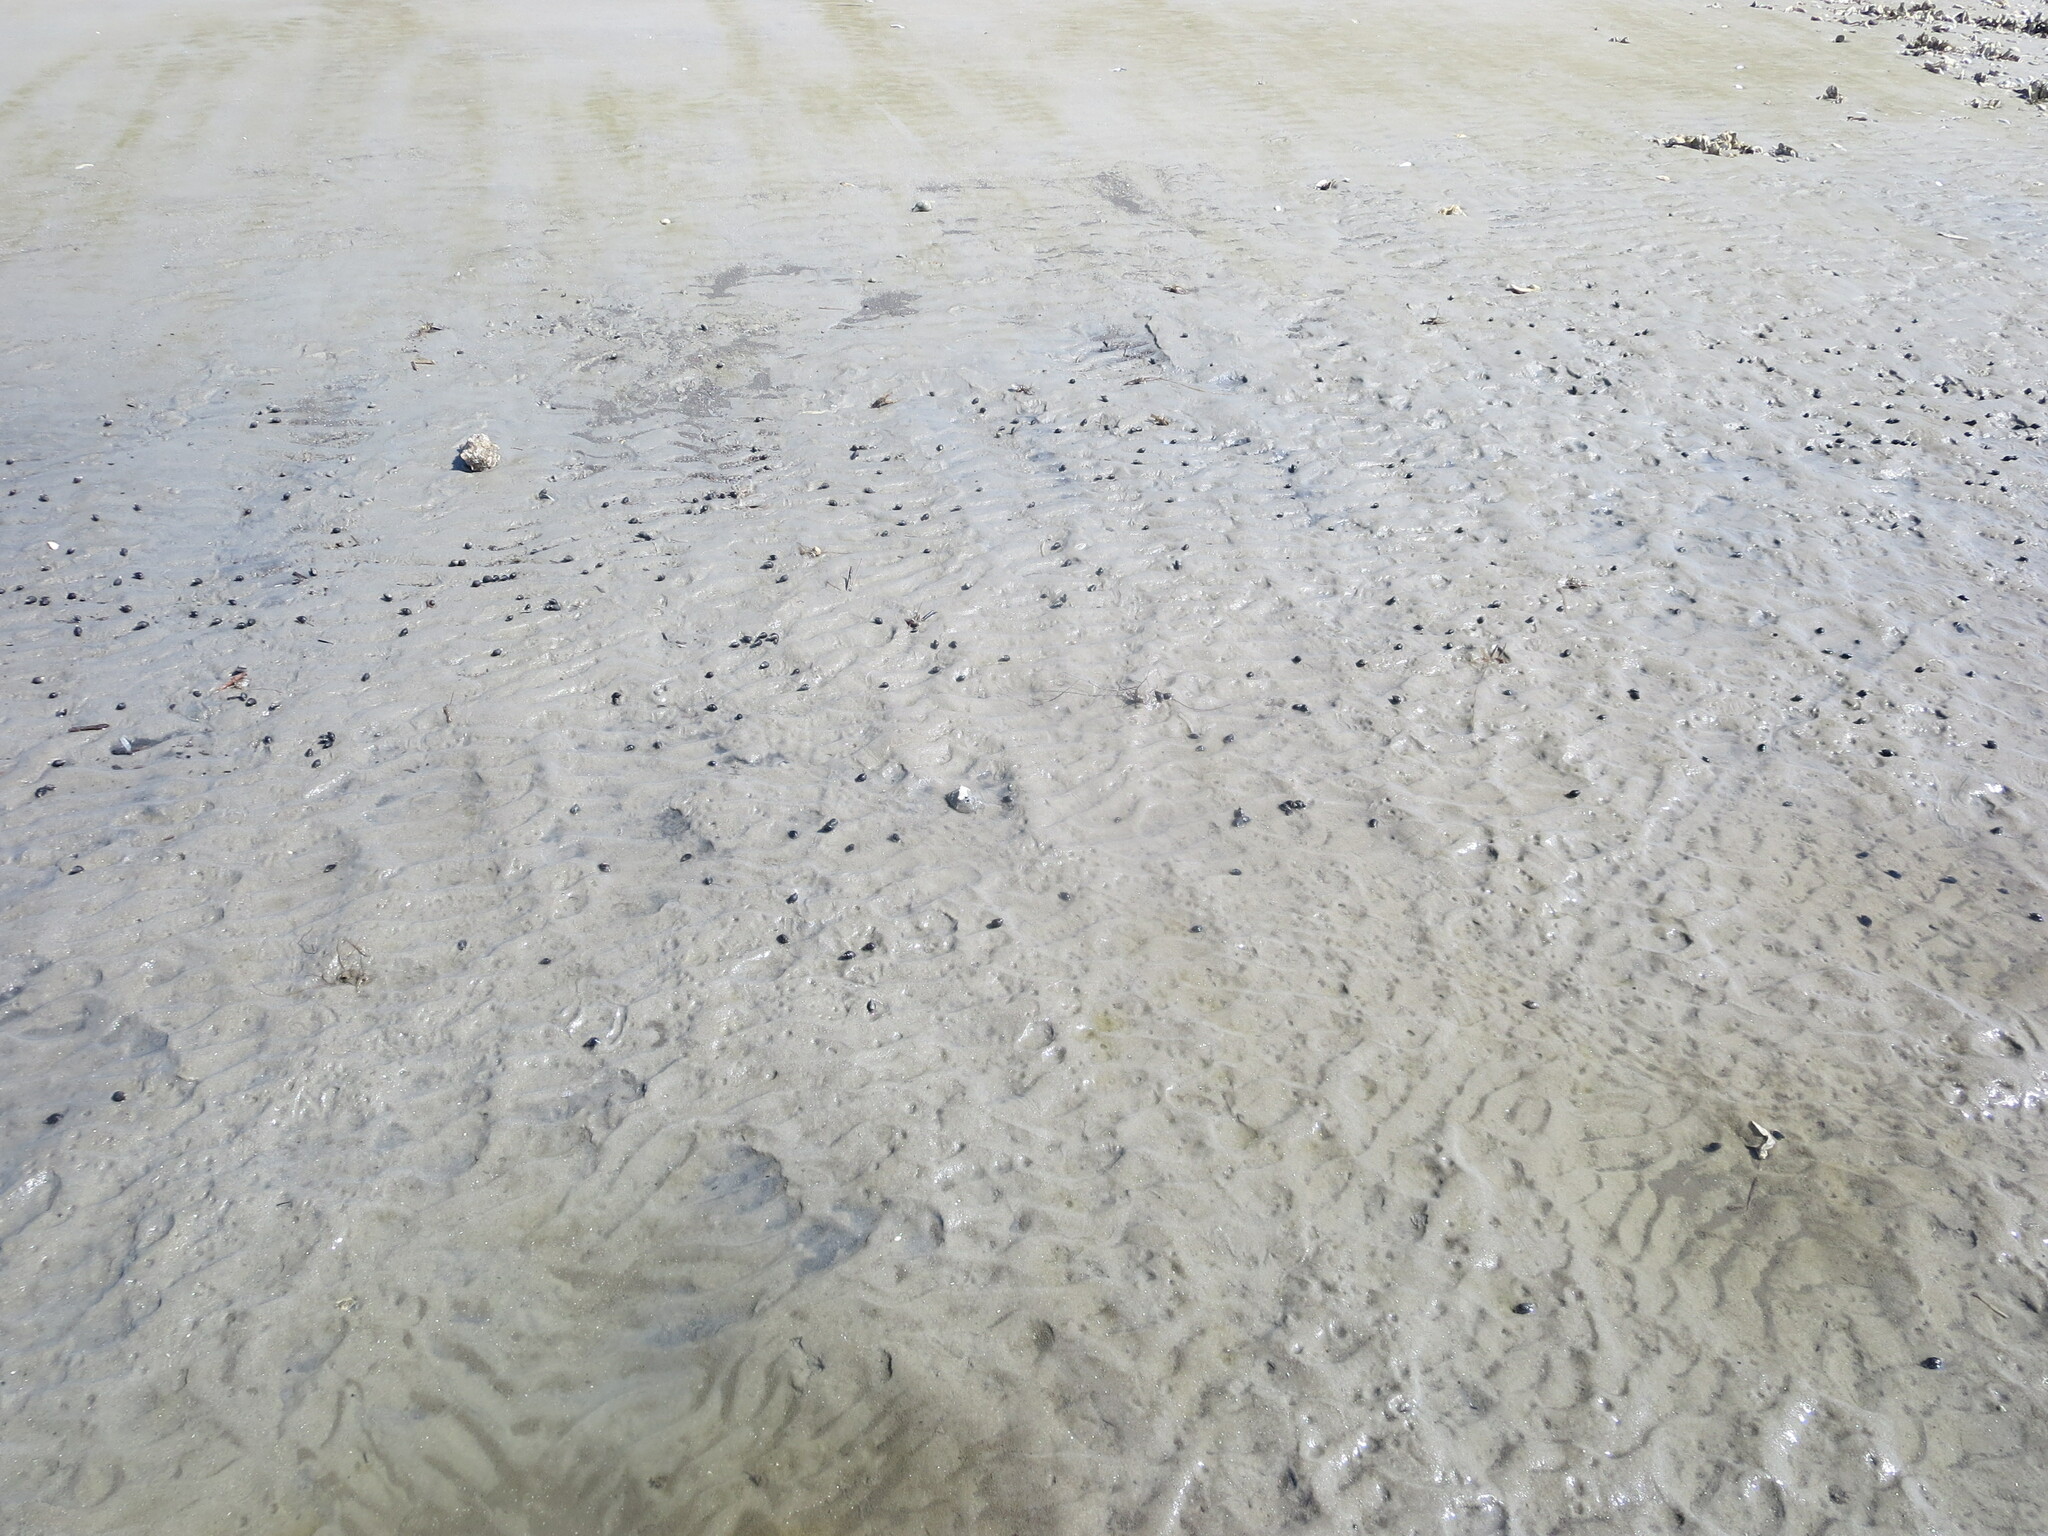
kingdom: Animalia
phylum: Mollusca
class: Gastropoda
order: Neogastropoda
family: Nassariidae
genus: Ilyanassa
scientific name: Ilyanassa obsoleta
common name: Eastern mudsnail
